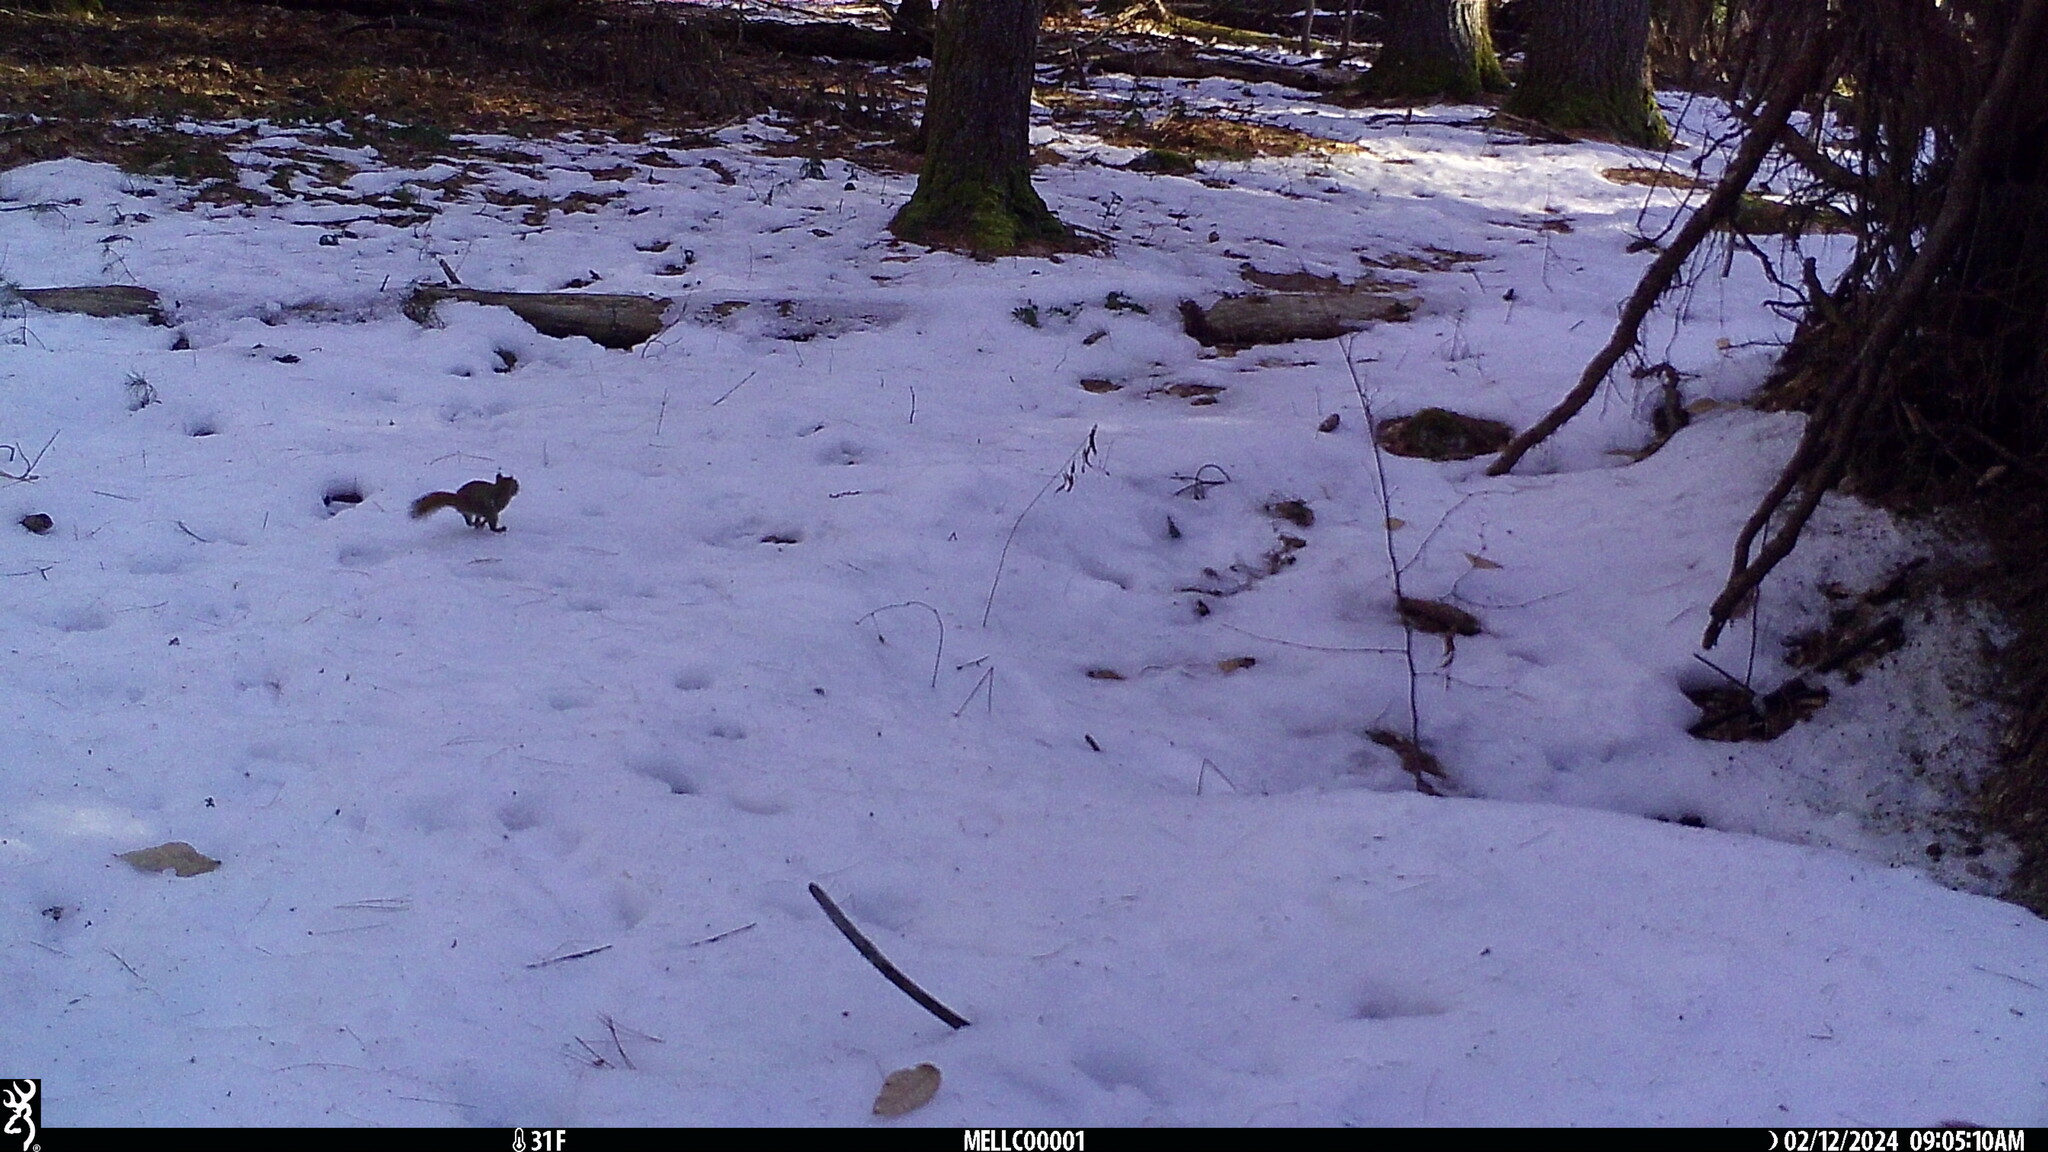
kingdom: Animalia
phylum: Chordata
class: Mammalia
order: Rodentia
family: Sciuridae
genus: Tamiasciurus
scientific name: Tamiasciurus hudsonicus
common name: Red squirrel
